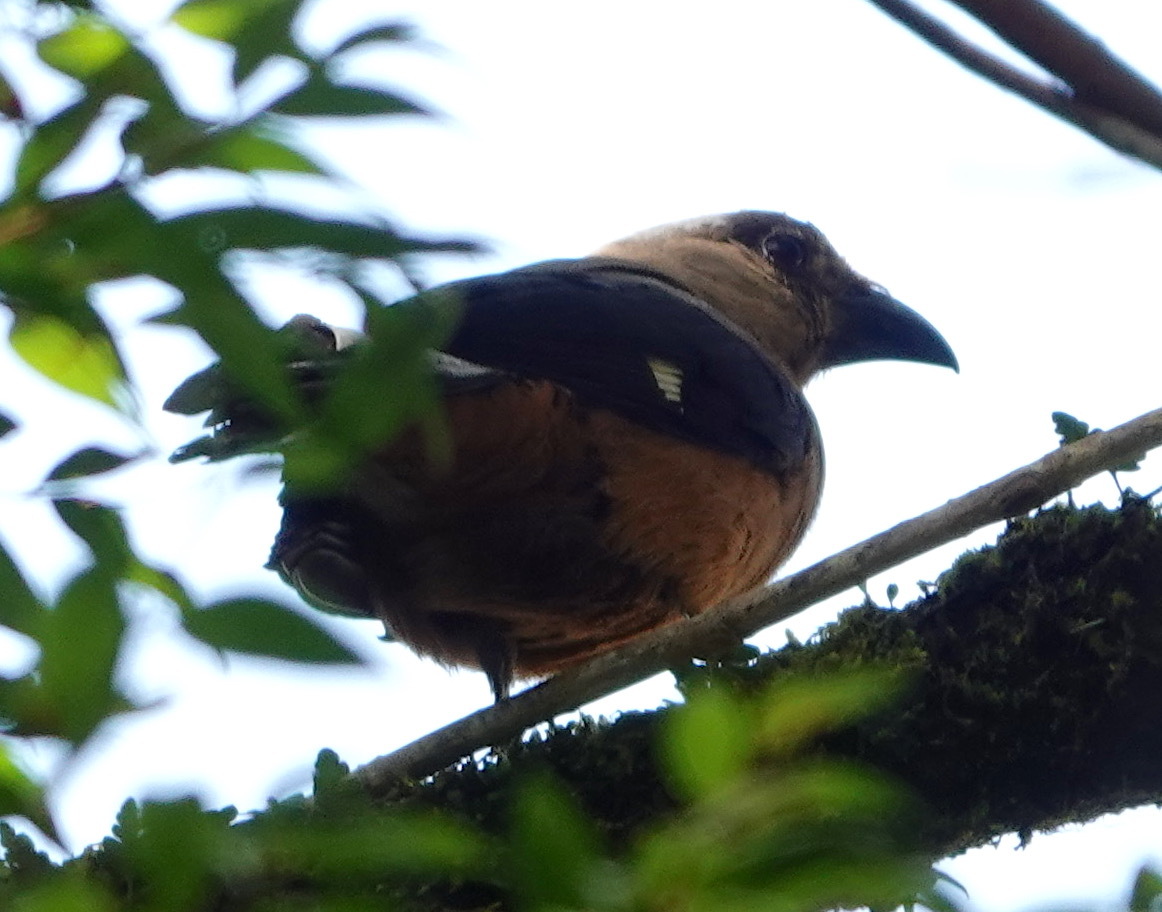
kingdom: Animalia
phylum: Chordata
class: Aves
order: Passeriformes
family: Corvidae
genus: Dendrocitta
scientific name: Dendrocitta cinerascens
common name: Bornean treepie
